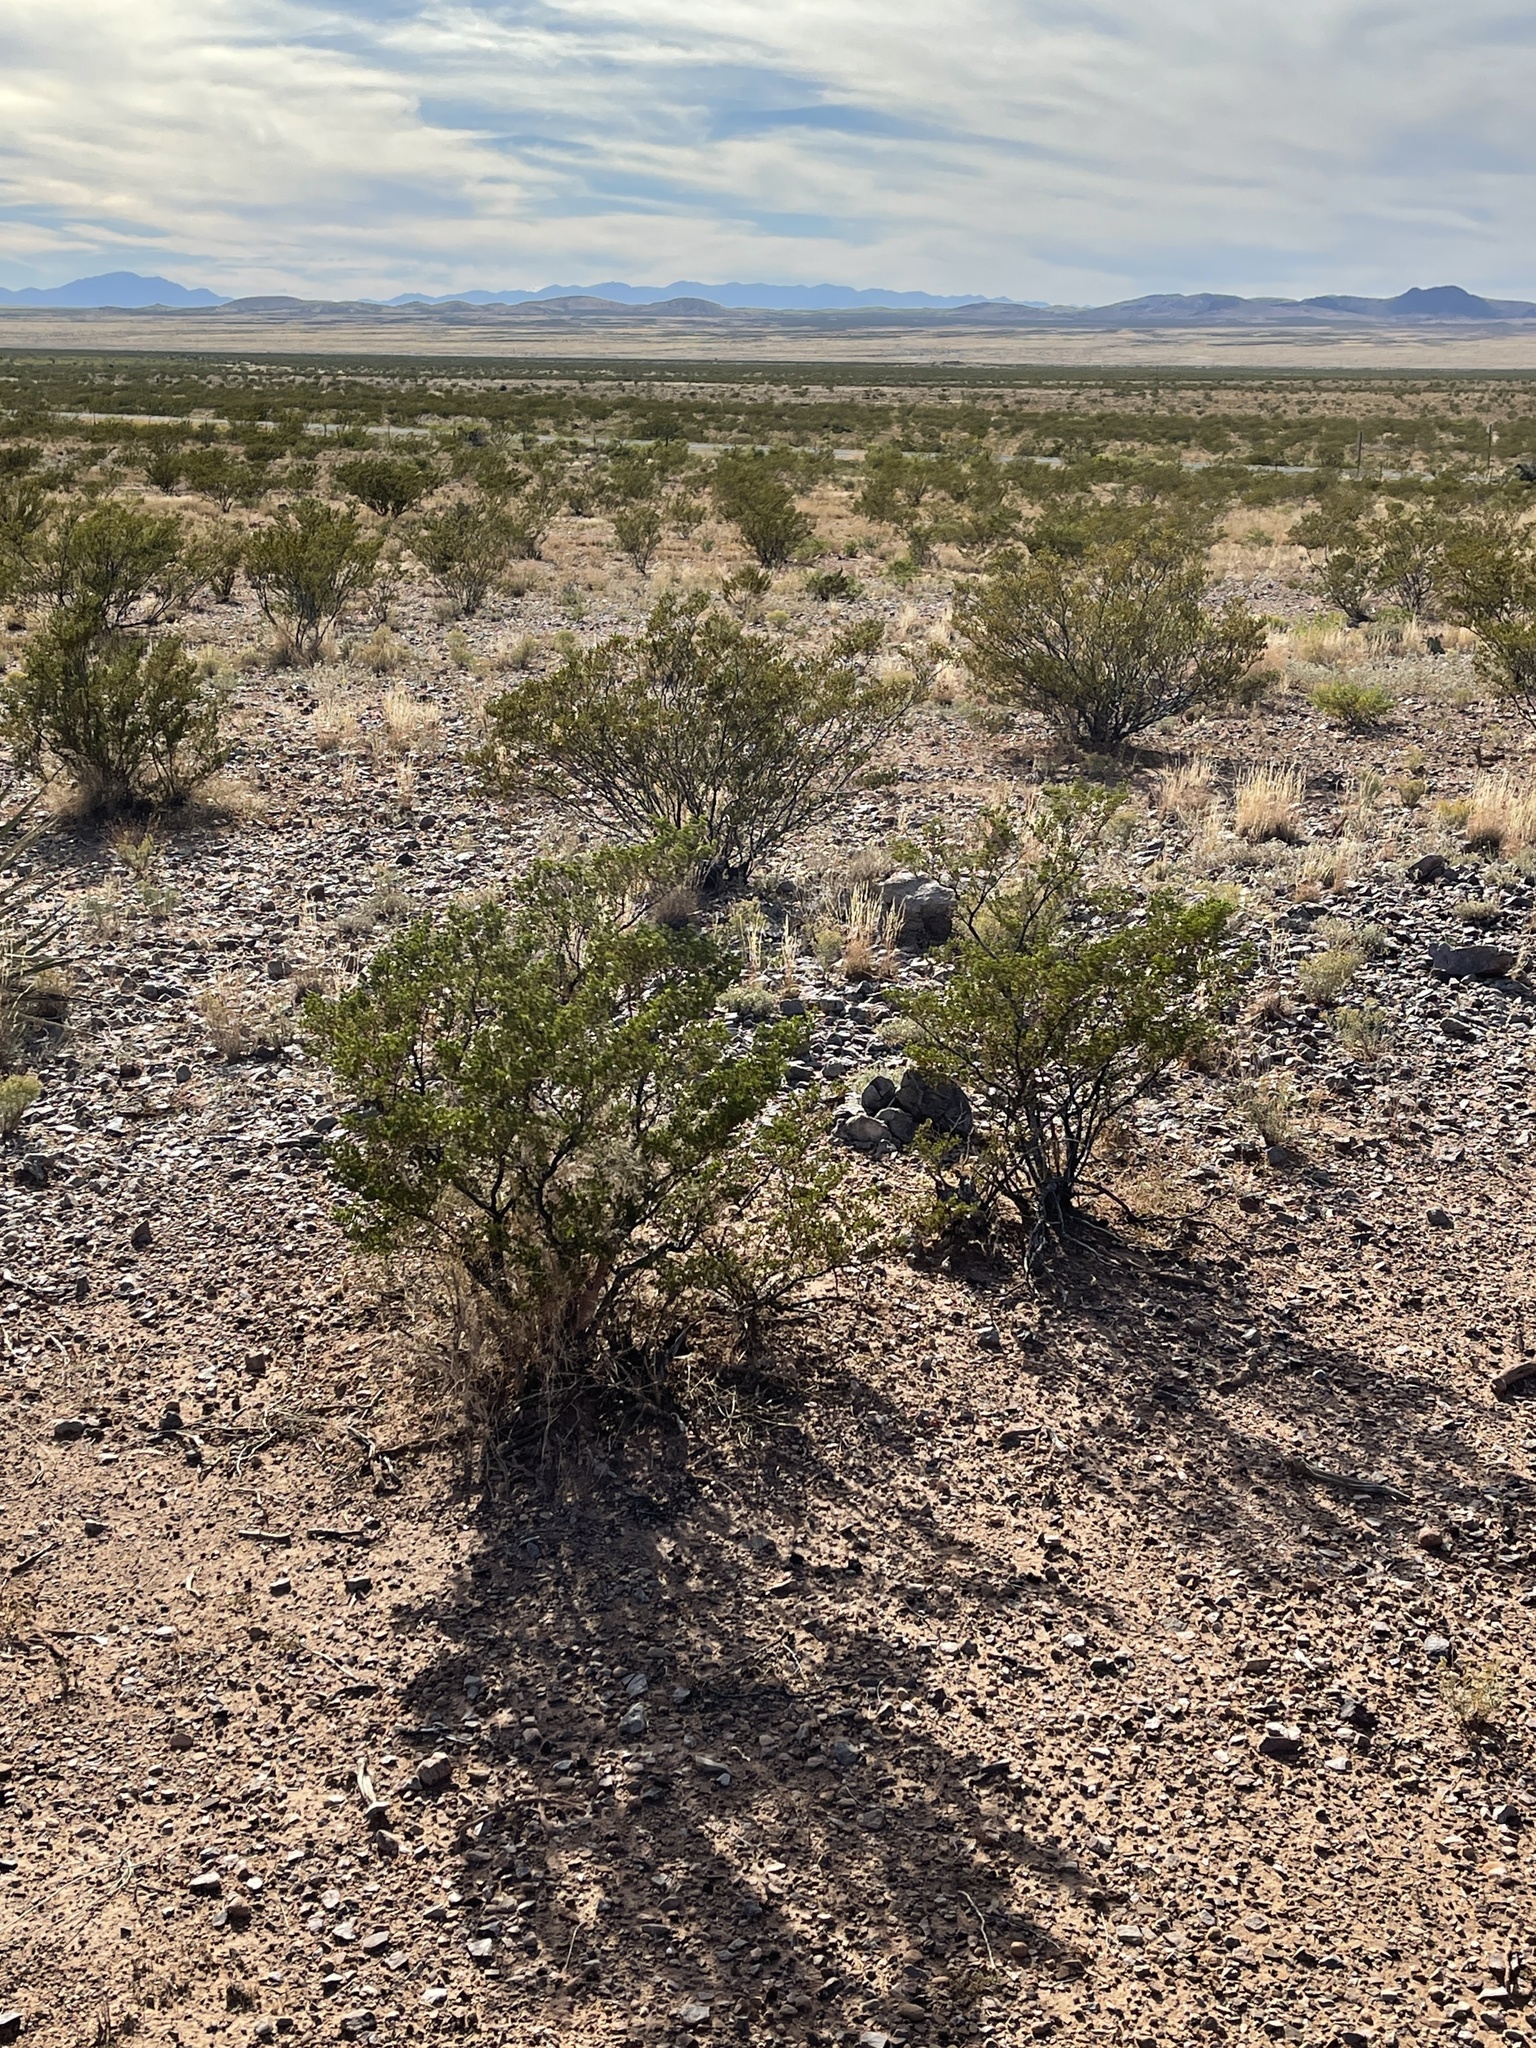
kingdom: Plantae
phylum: Tracheophyta
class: Magnoliopsida
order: Zygophyllales
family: Zygophyllaceae
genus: Larrea
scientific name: Larrea tridentata
